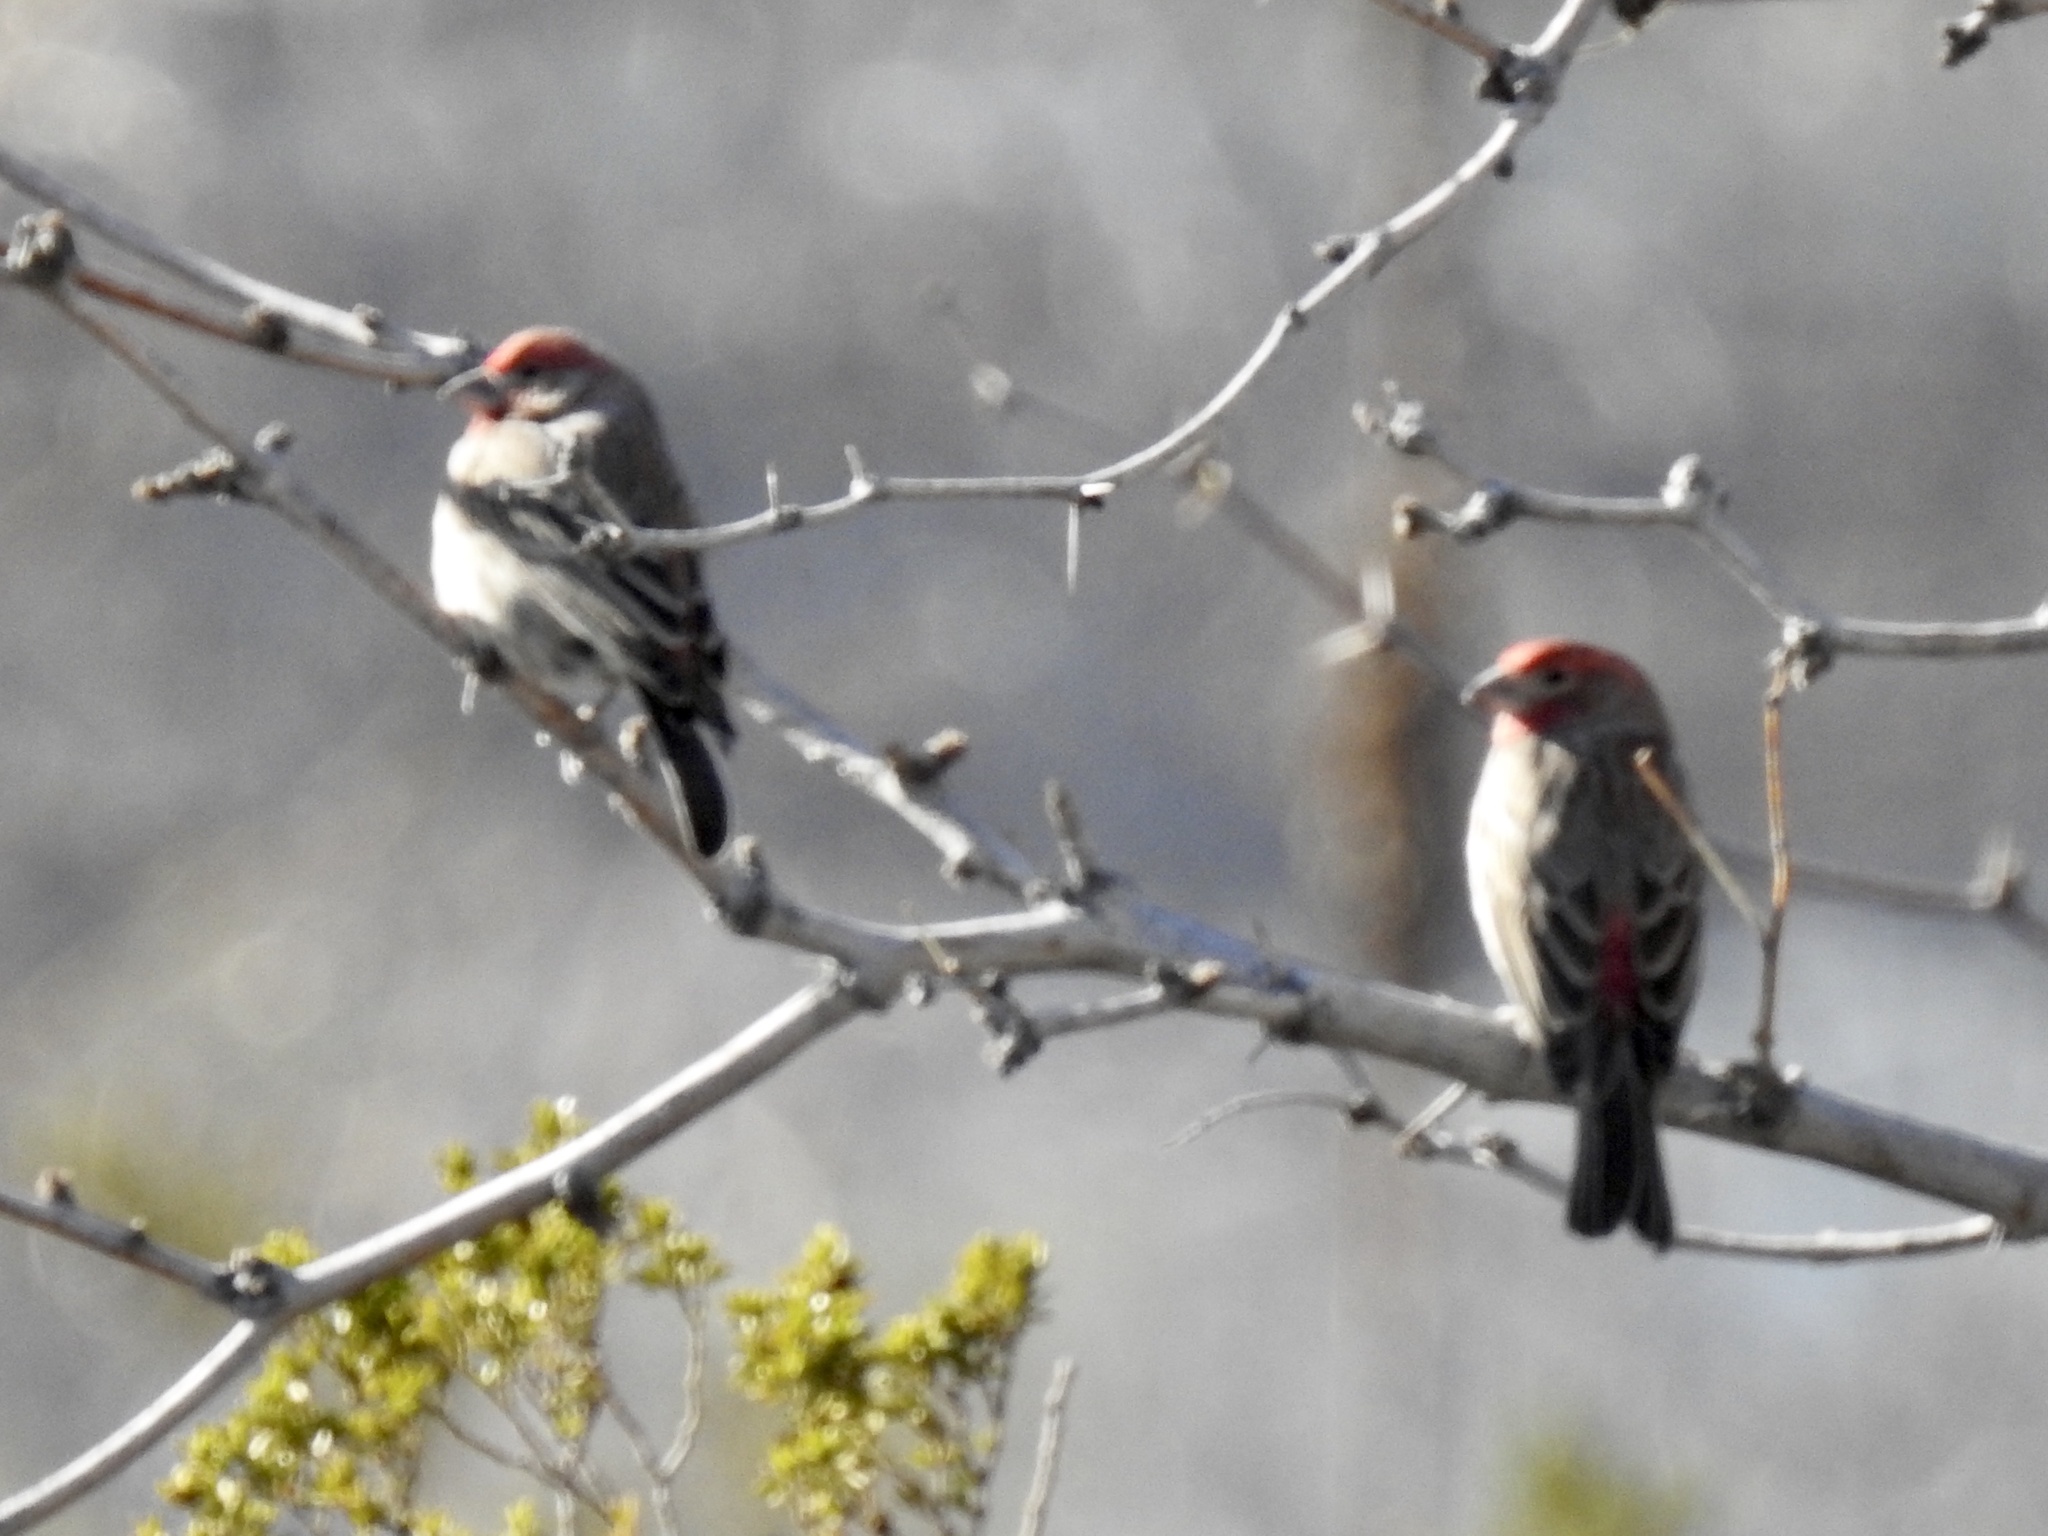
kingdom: Animalia
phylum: Chordata
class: Aves
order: Passeriformes
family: Fringillidae
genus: Haemorhous
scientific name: Haemorhous mexicanus
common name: House finch
